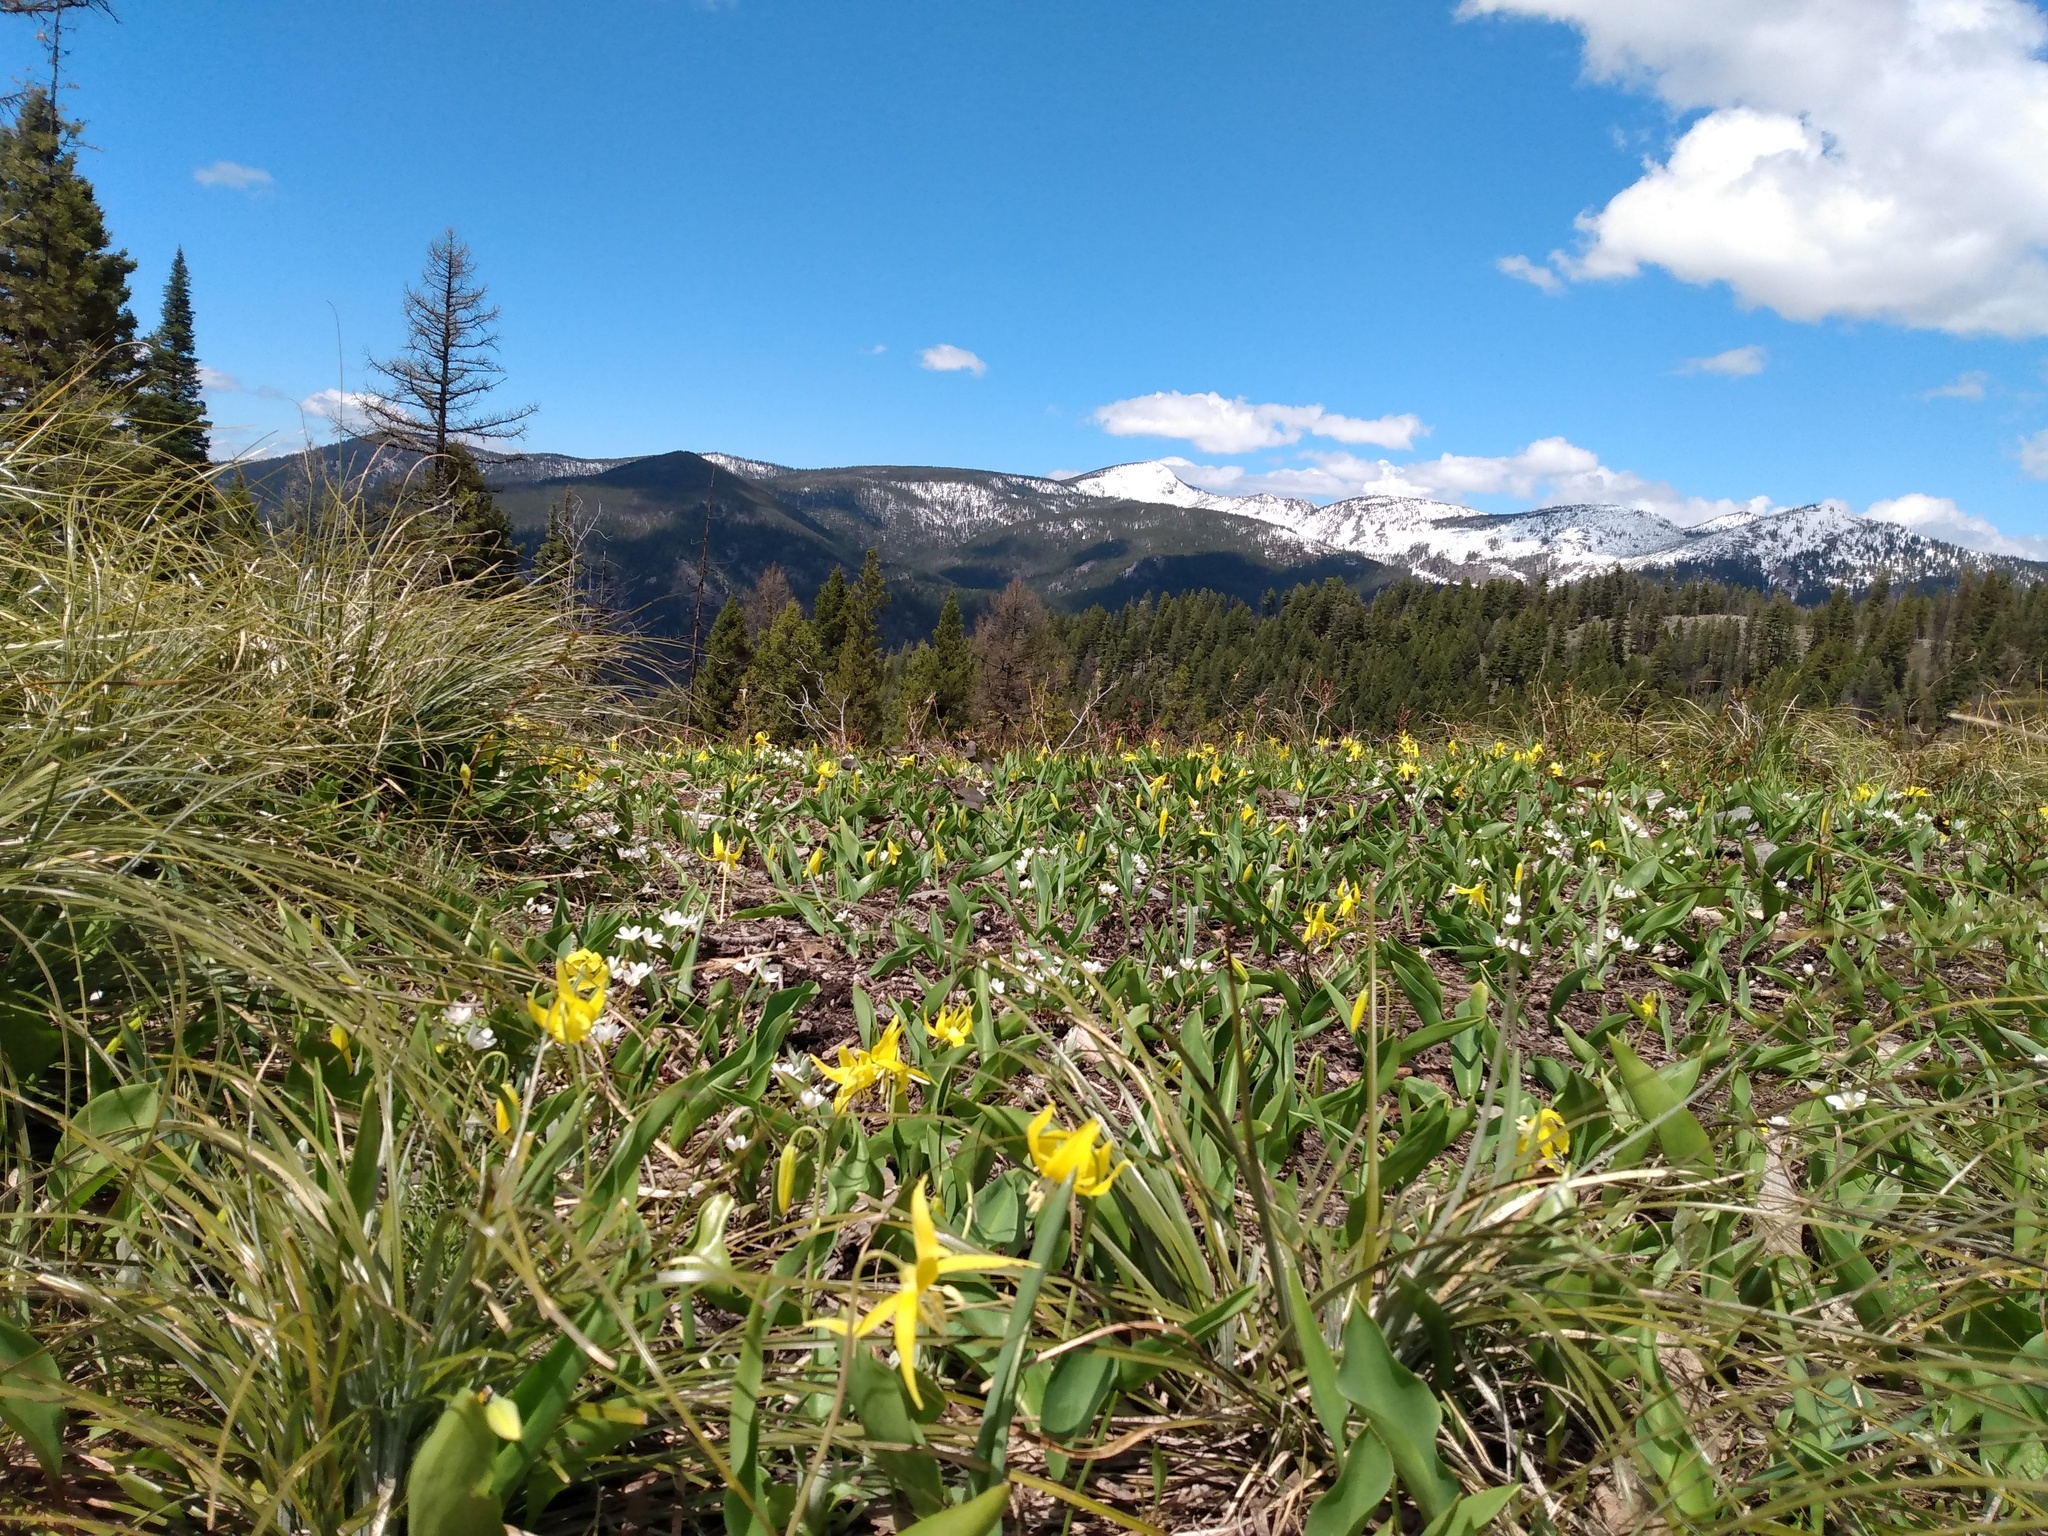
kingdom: Plantae
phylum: Tracheophyta
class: Liliopsida
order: Liliales
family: Liliaceae
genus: Erythronium
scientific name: Erythronium grandiflorum
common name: Avalanche-lily
